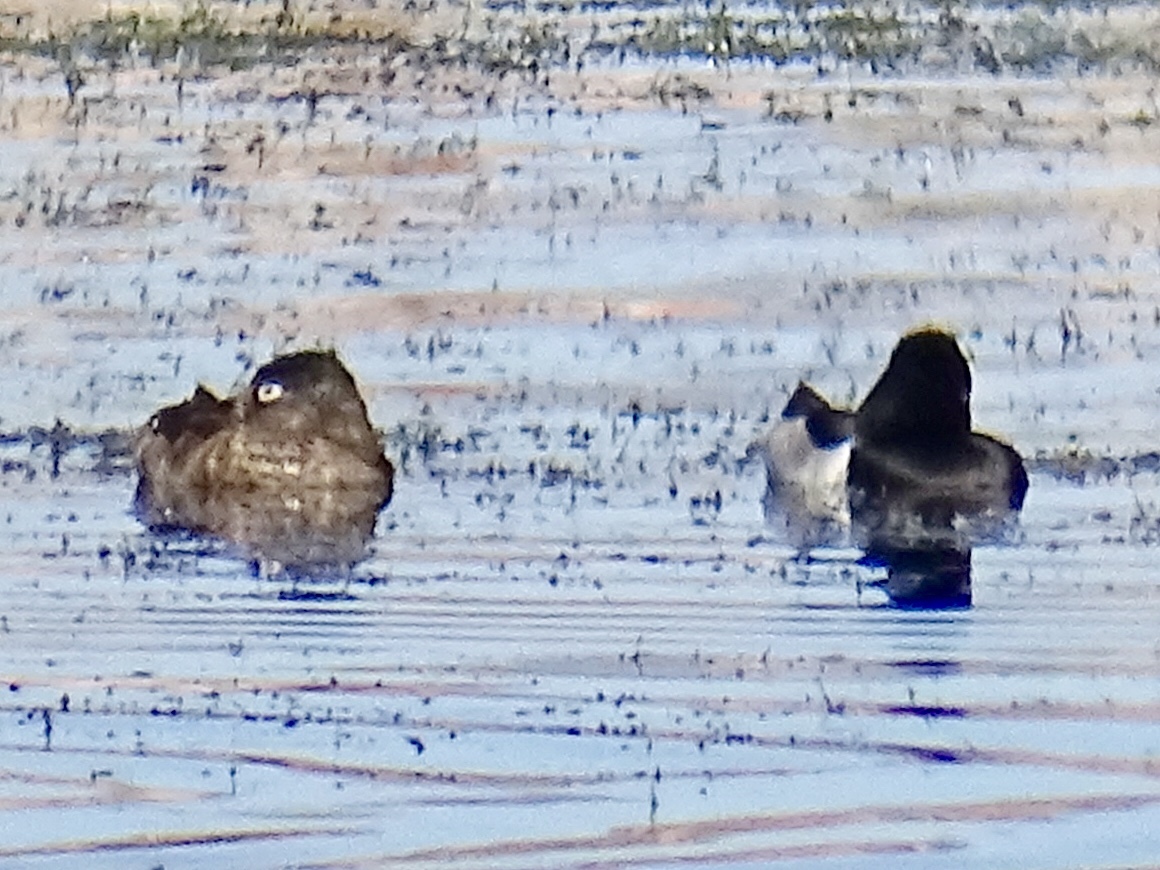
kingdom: Animalia
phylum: Chordata
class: Aves
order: Anseriformes
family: Anatidae
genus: Aythya
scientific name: Aythya collaris
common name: Ring-necked duck
